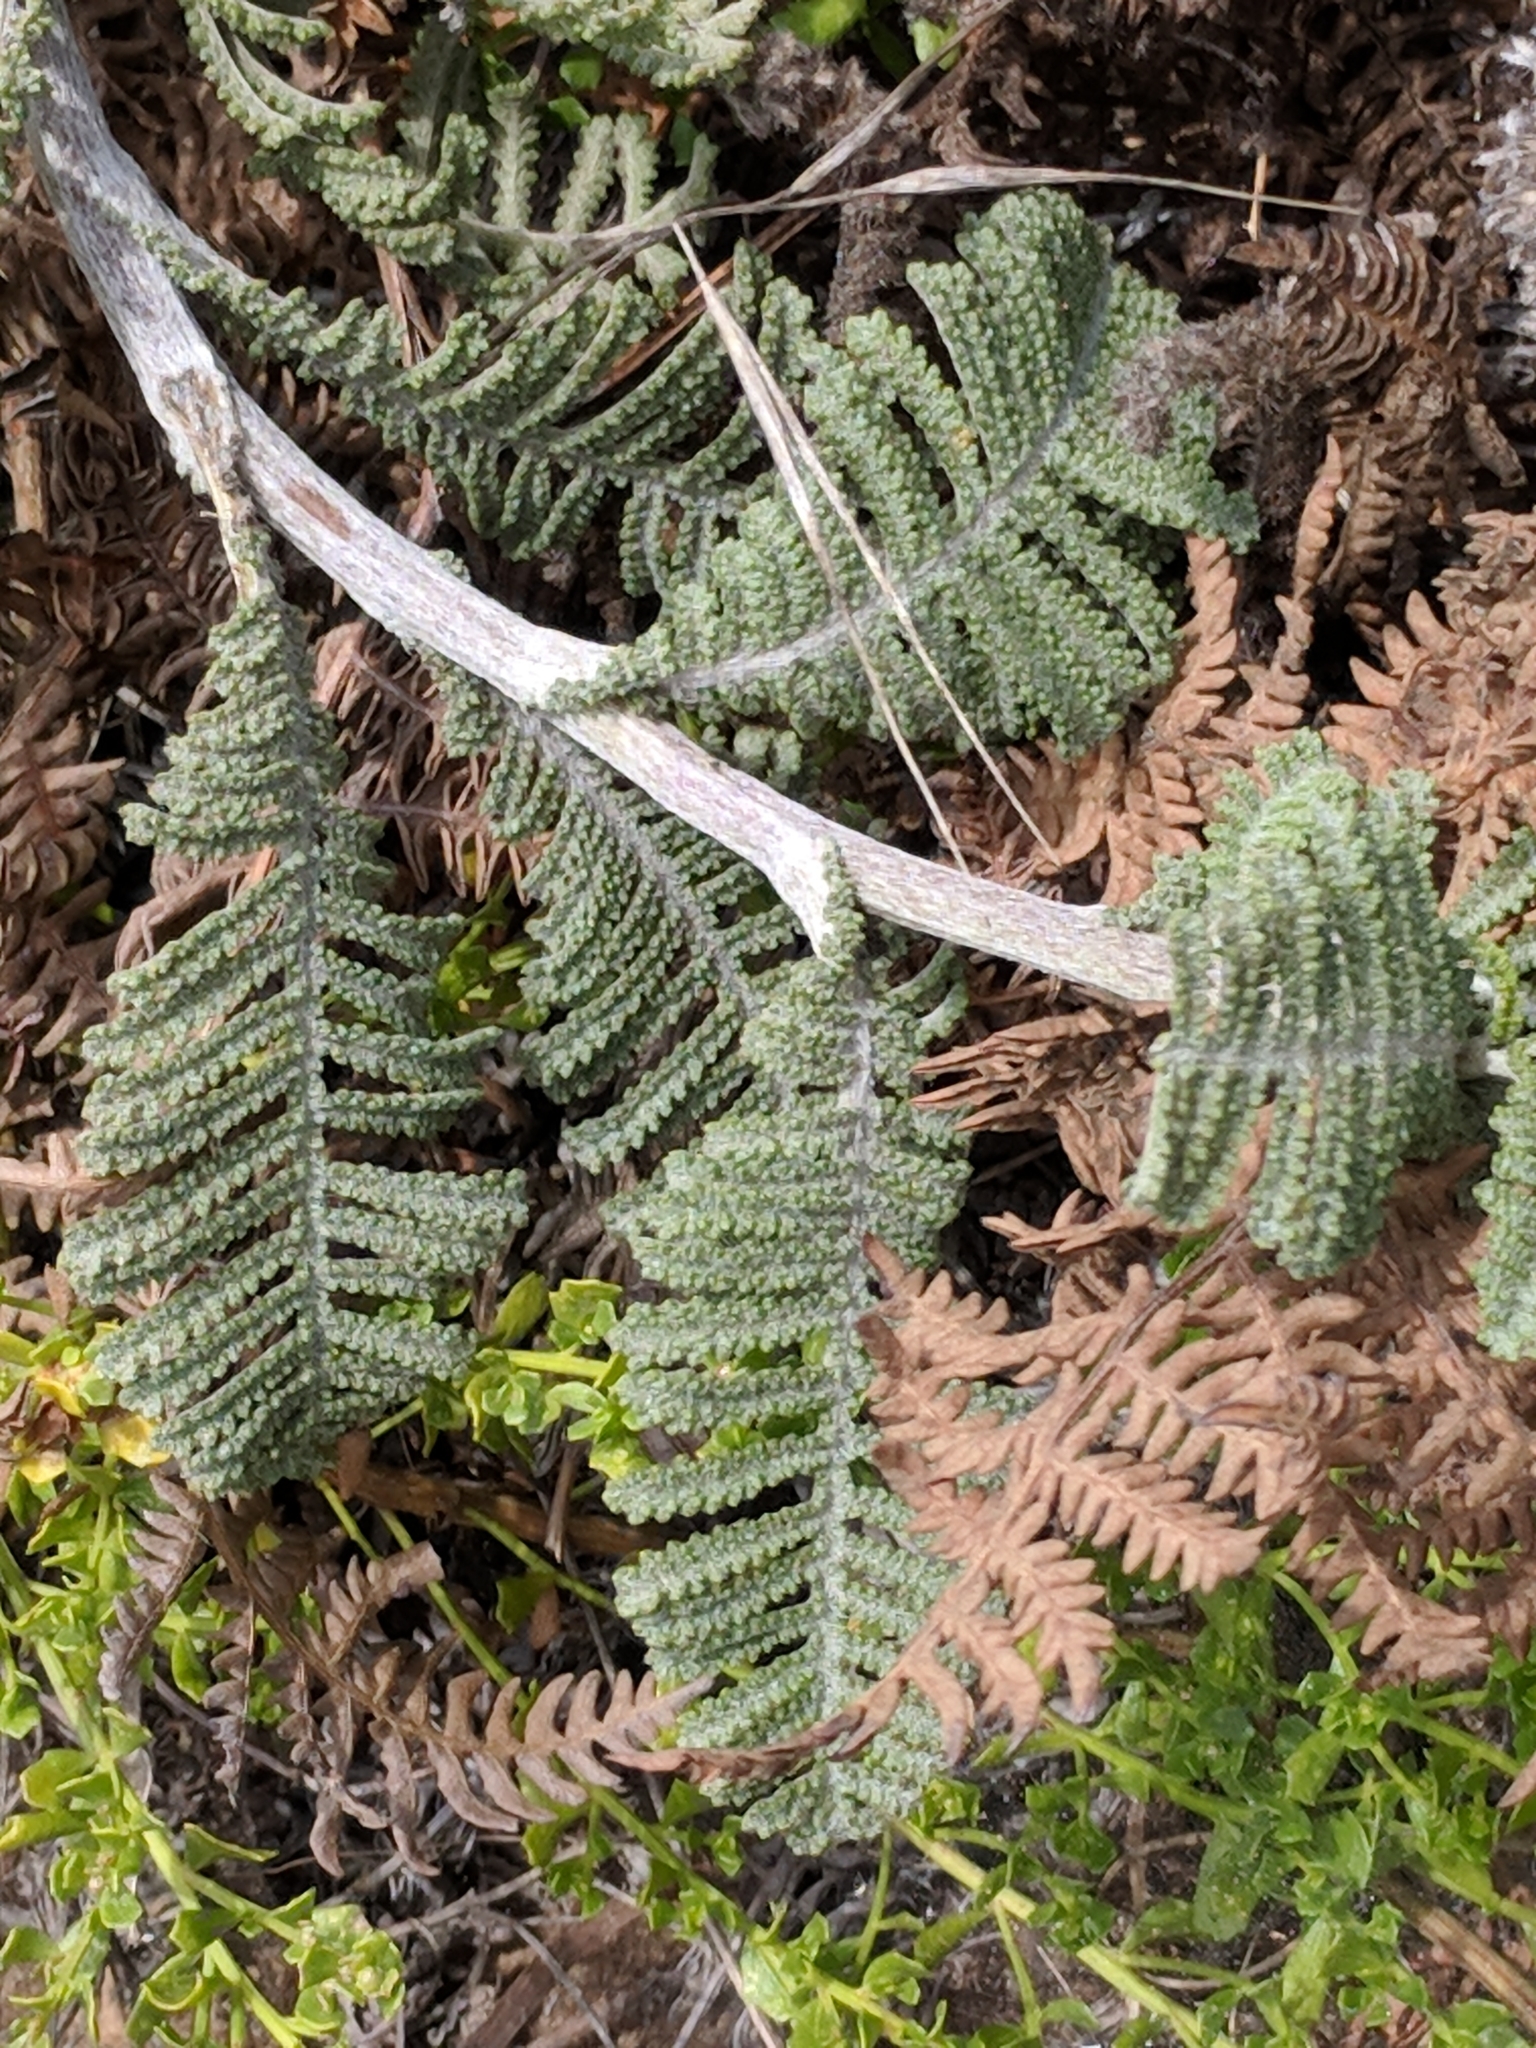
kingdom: Plantae
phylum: Tracheophyta
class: Magnoliopsida
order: Asterales
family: Asteraceae
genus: Tanacetum
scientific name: Tanacetum bipinnatum
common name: Dwarf tansy
